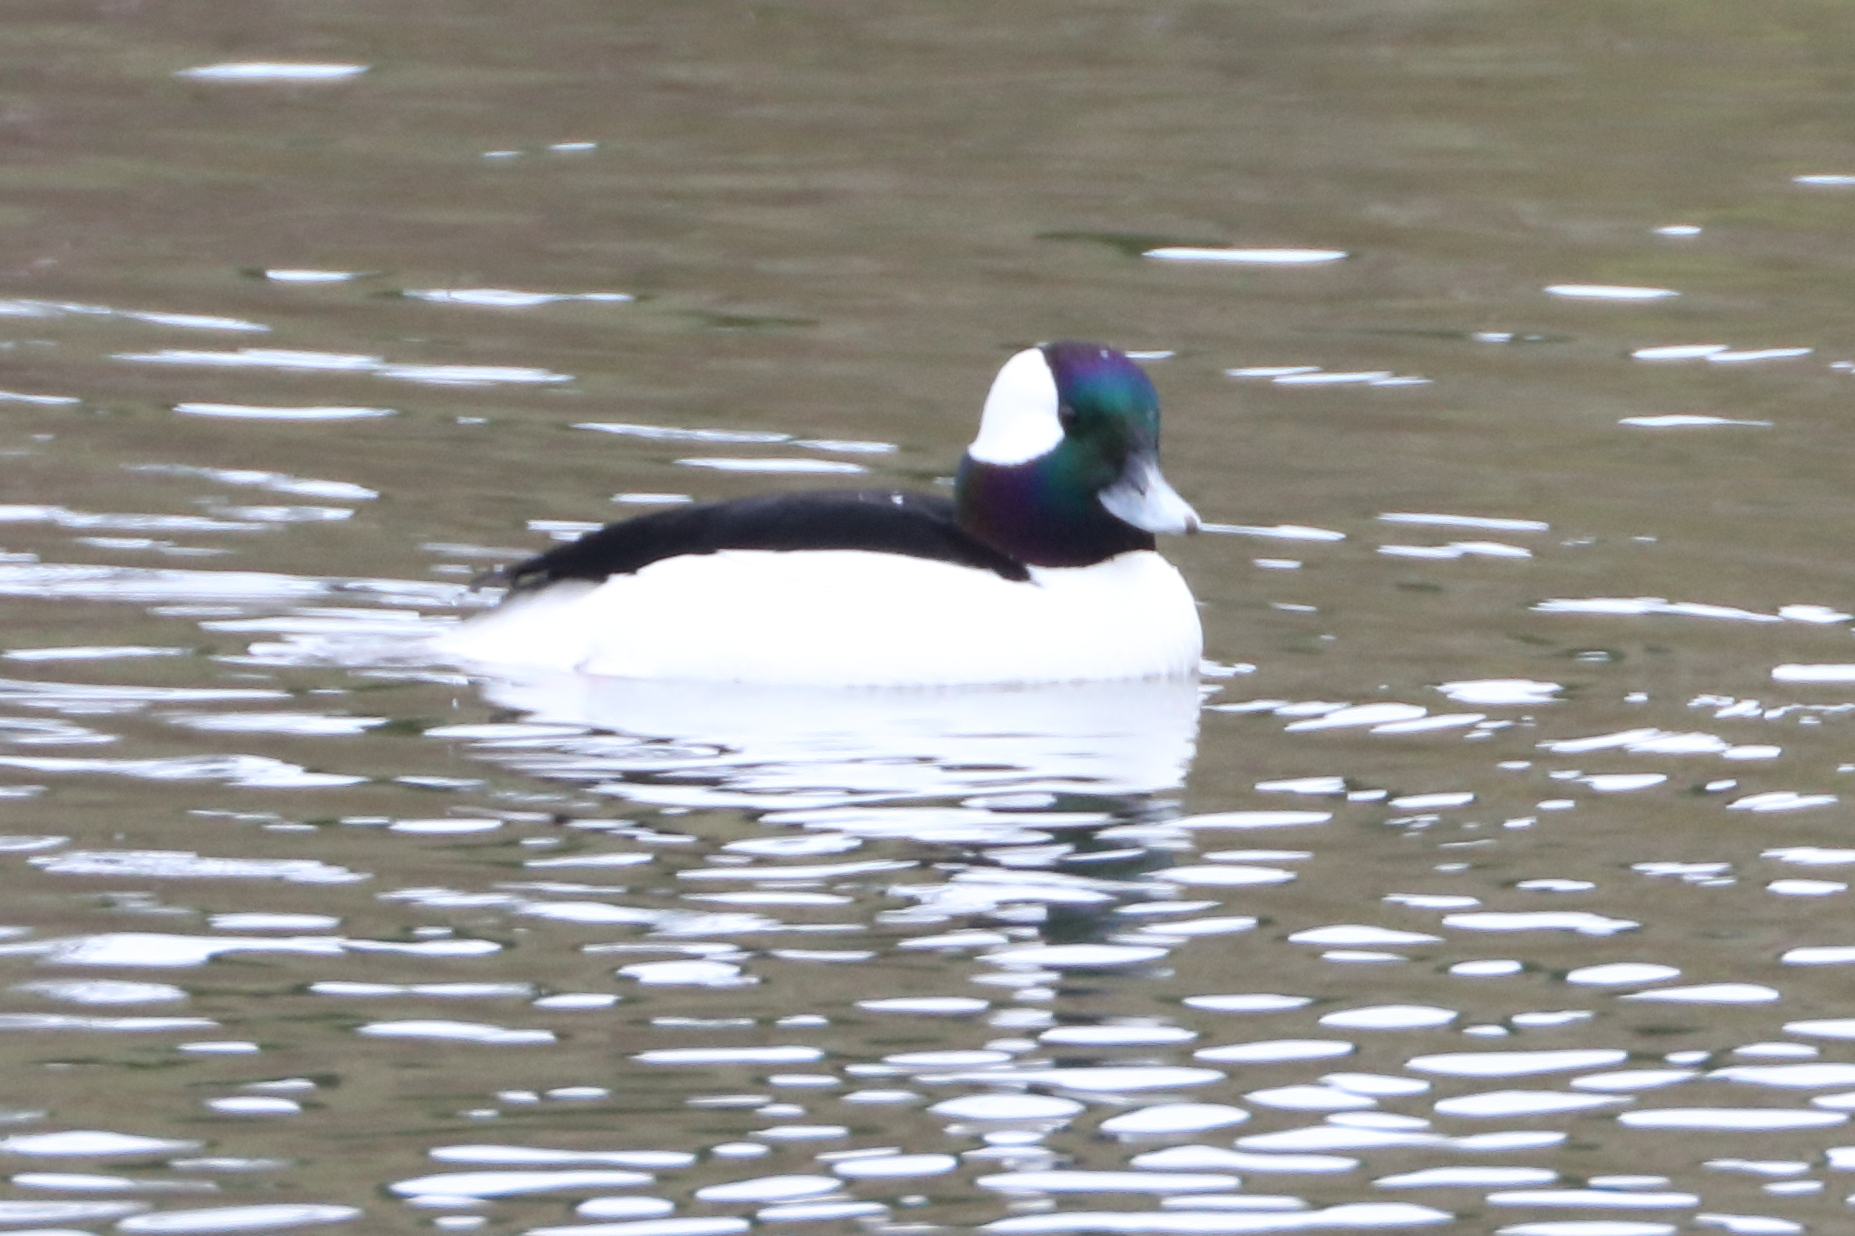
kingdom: Animalia
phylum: Chordata
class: Aves
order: Anseriformes
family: Anatidae
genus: Bucephala
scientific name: Bucephala albeola
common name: Bufflehead
